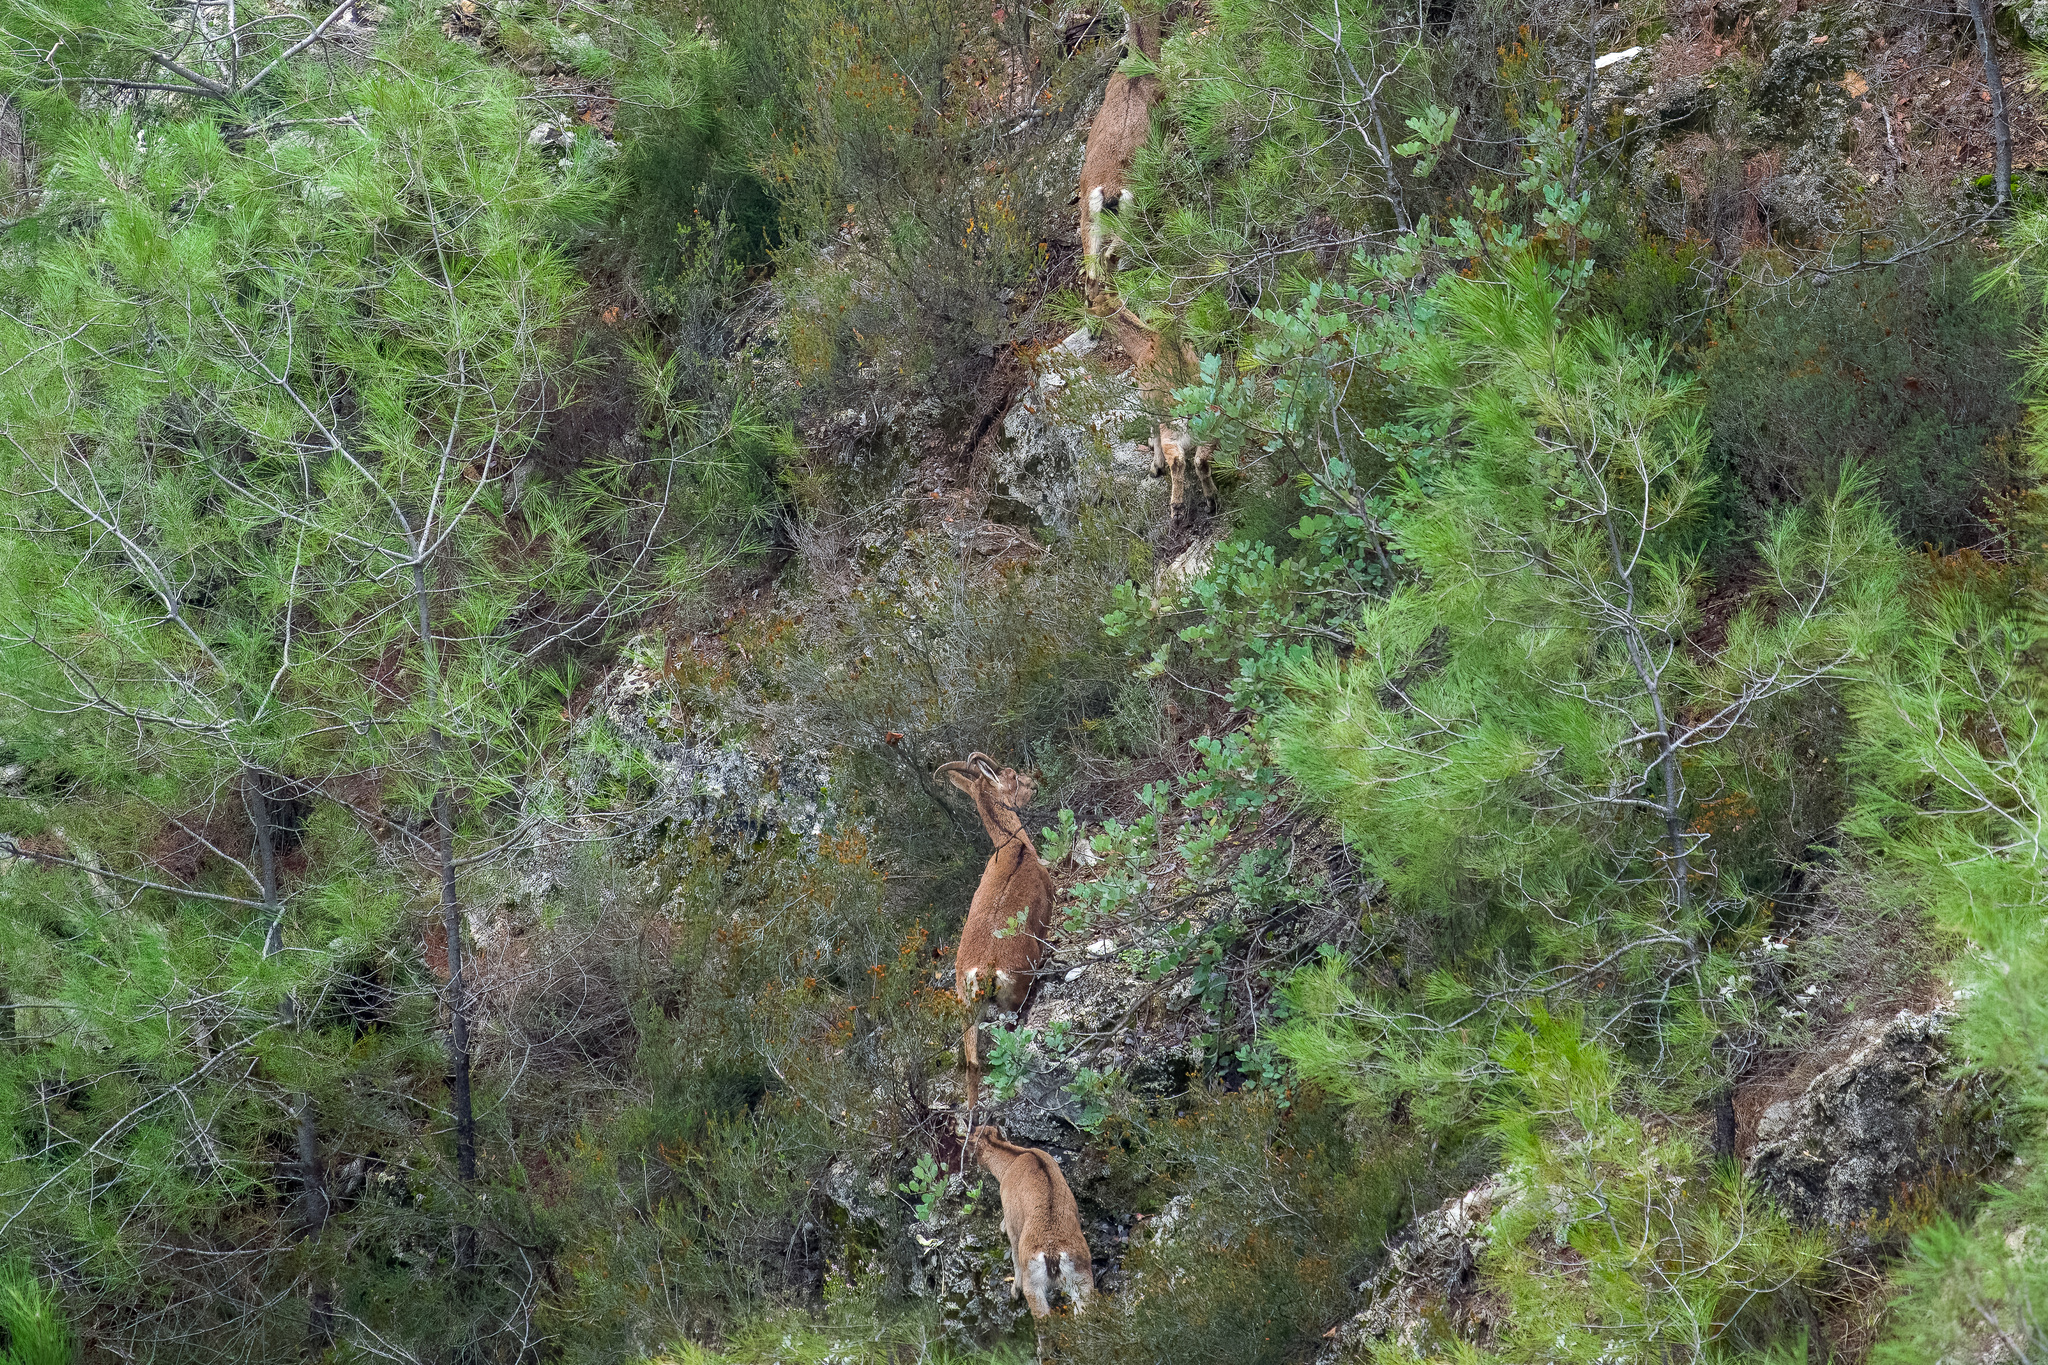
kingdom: Animalia
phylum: Chordata
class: Mammalia
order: Artiodactyla
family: Bovidae
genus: Capra
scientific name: Capra hircus
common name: Domestic goat
